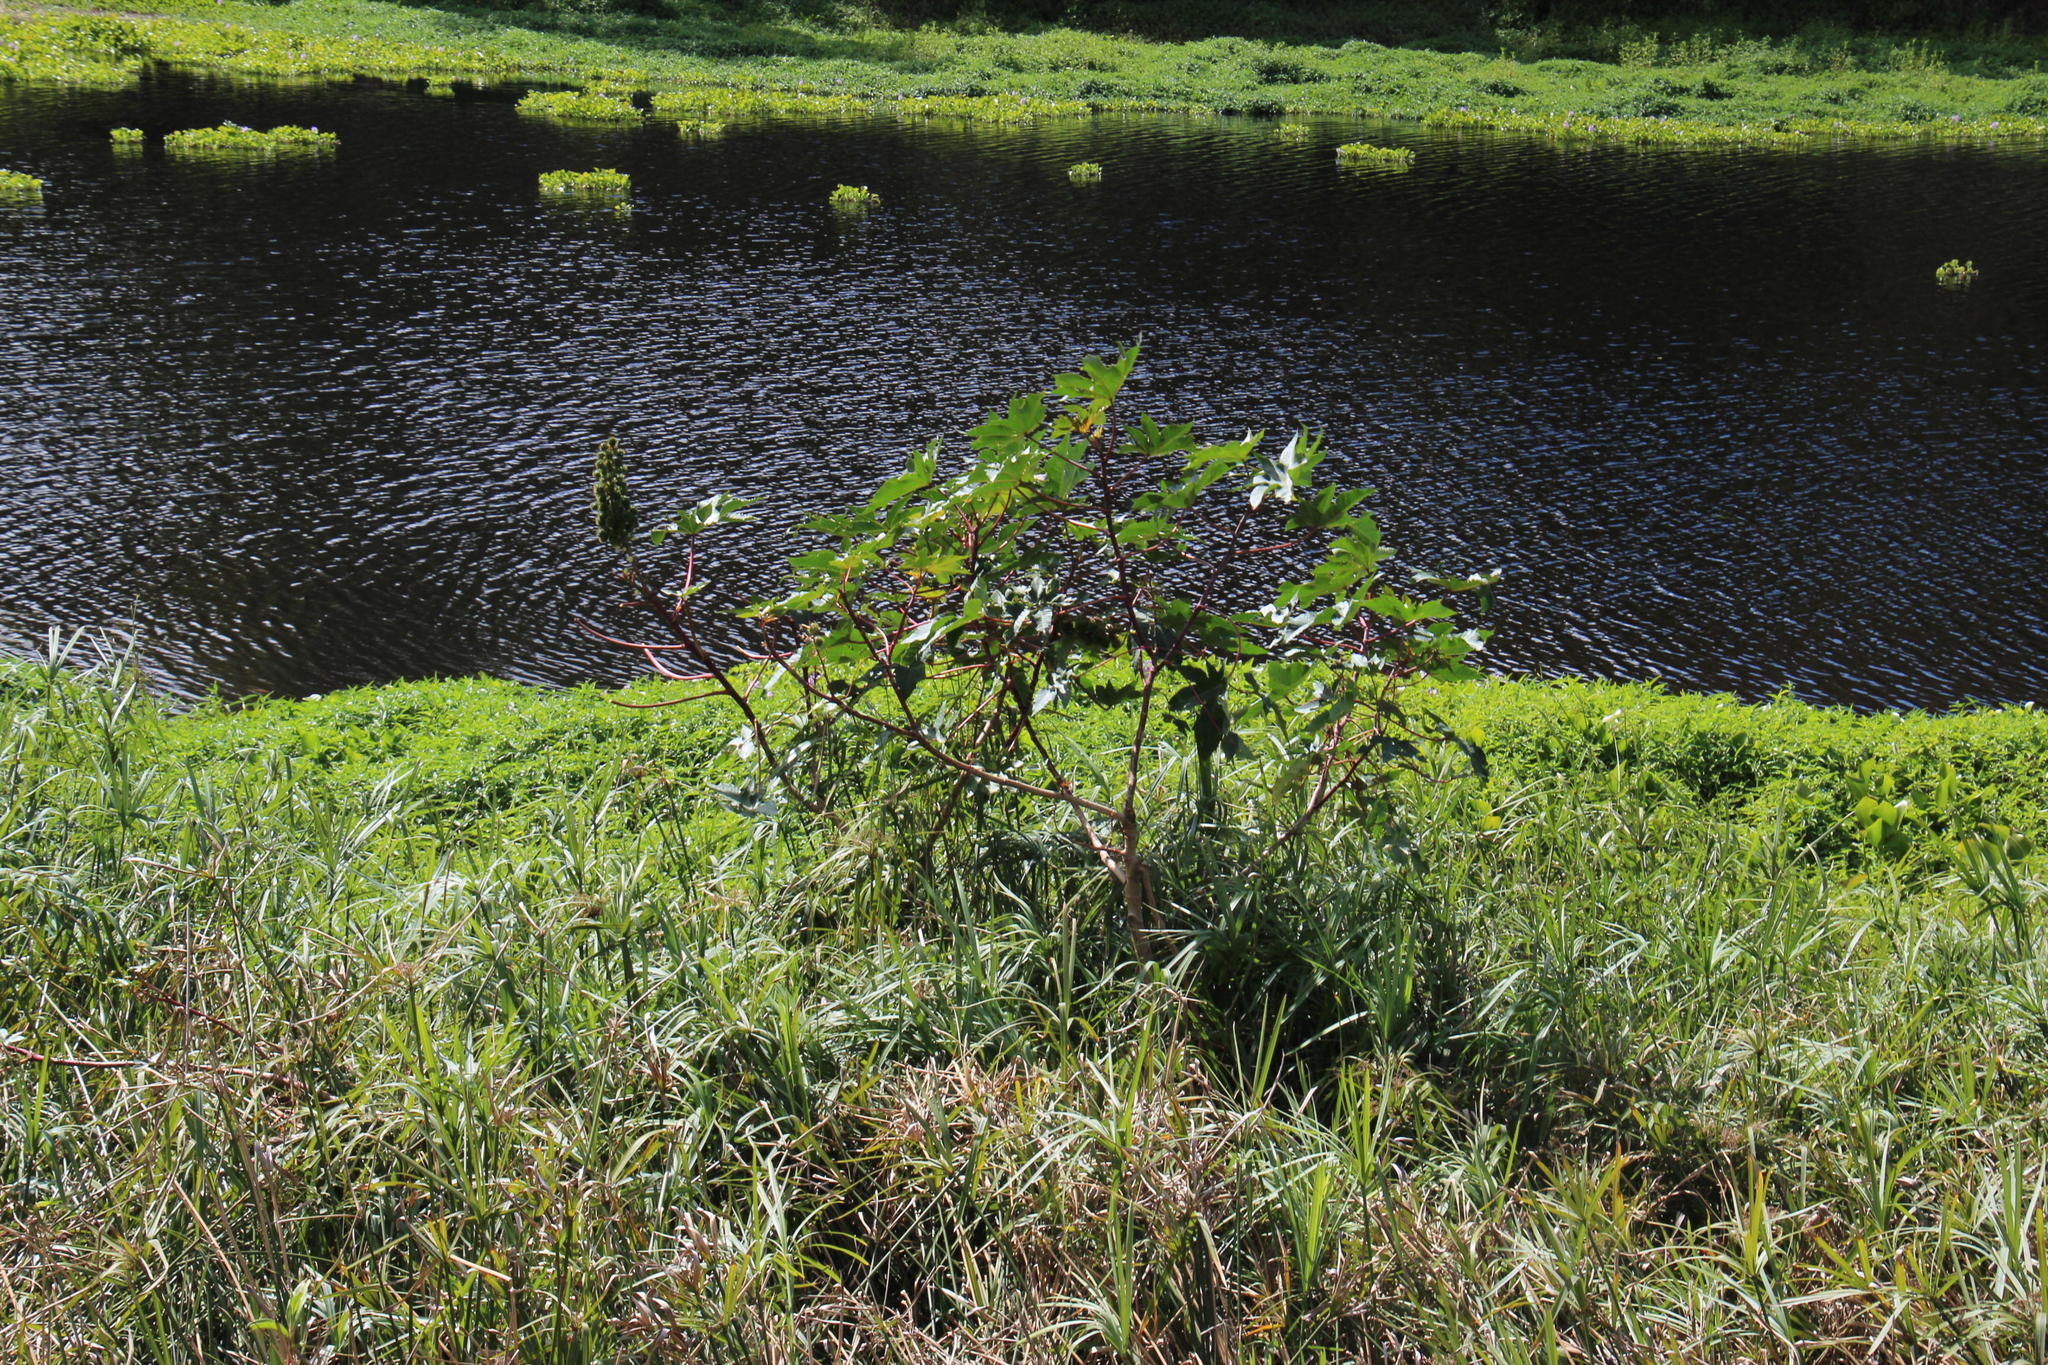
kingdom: Plantae
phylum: Tracheophyta
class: Magnoliopsida
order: Malpighiales
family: Euphorbiaceae
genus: Ricinus
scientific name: Ricinus communis
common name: Castor-oil-plant
